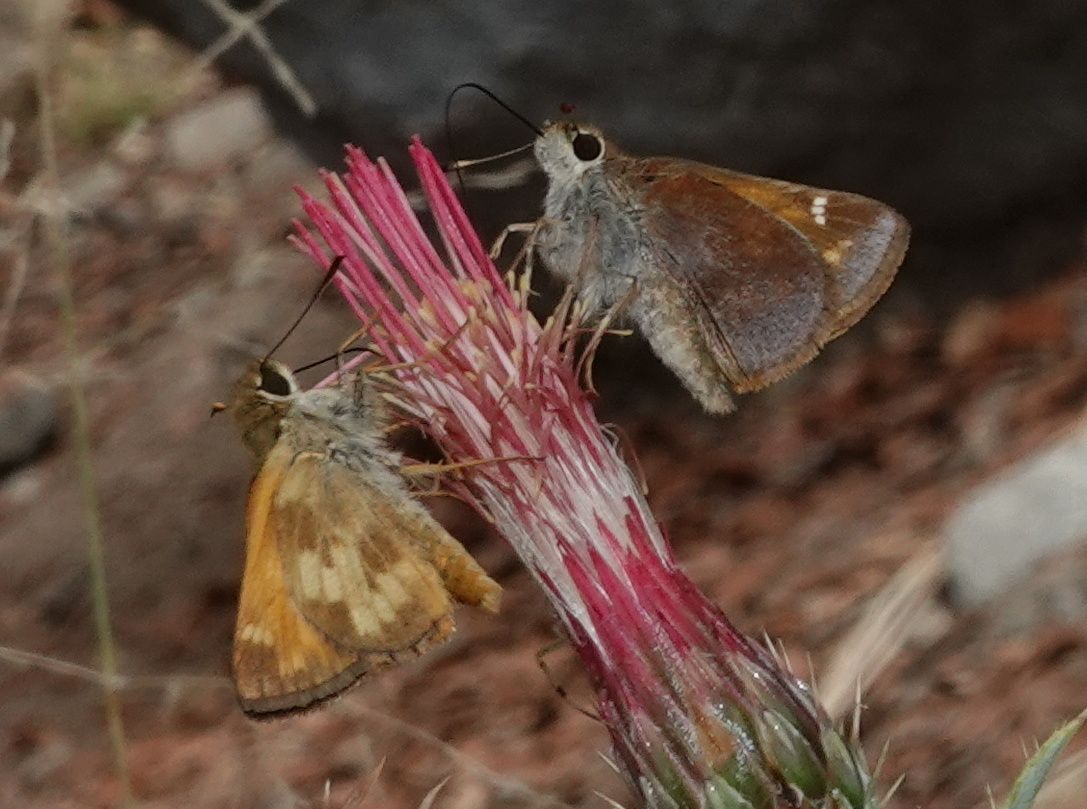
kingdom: Animalia
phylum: Arthropoda
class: Insecta
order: Lepidoptera
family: Hesperiidae
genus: Lon
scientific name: Lon taxiles
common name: Taxiles skipper
